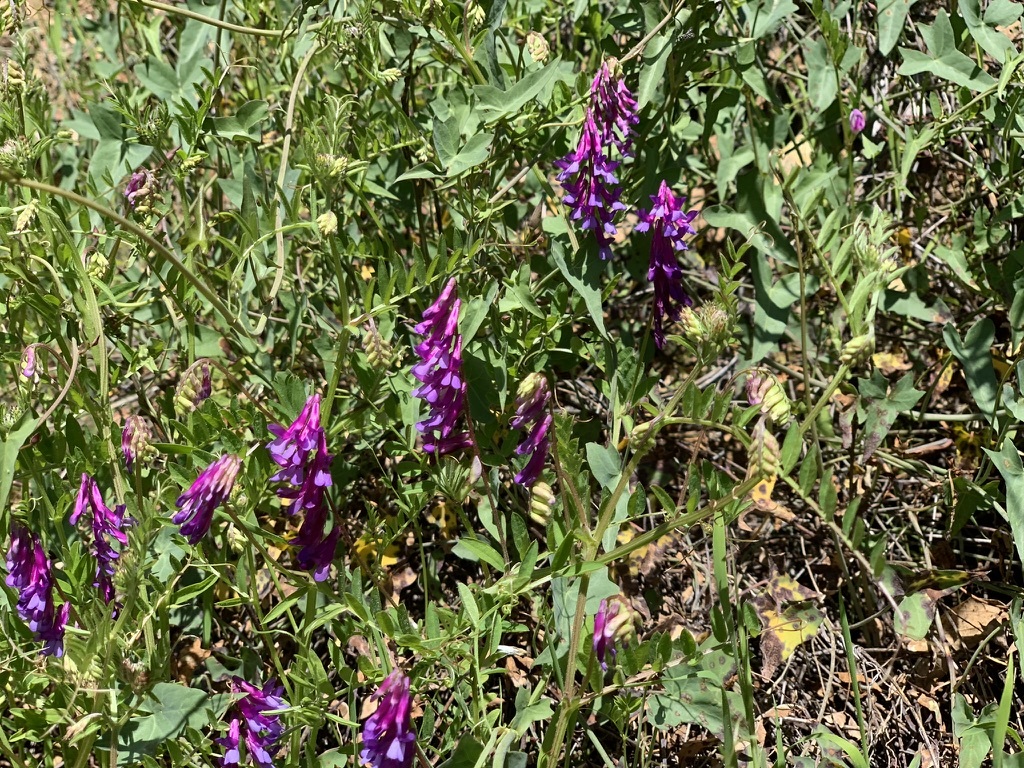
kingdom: Plantae
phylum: Tracheophyta
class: Magnoliopsida
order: Fabales
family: Fabaceae
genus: Vicia
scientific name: Vicia villosa
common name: Fodder vetch
